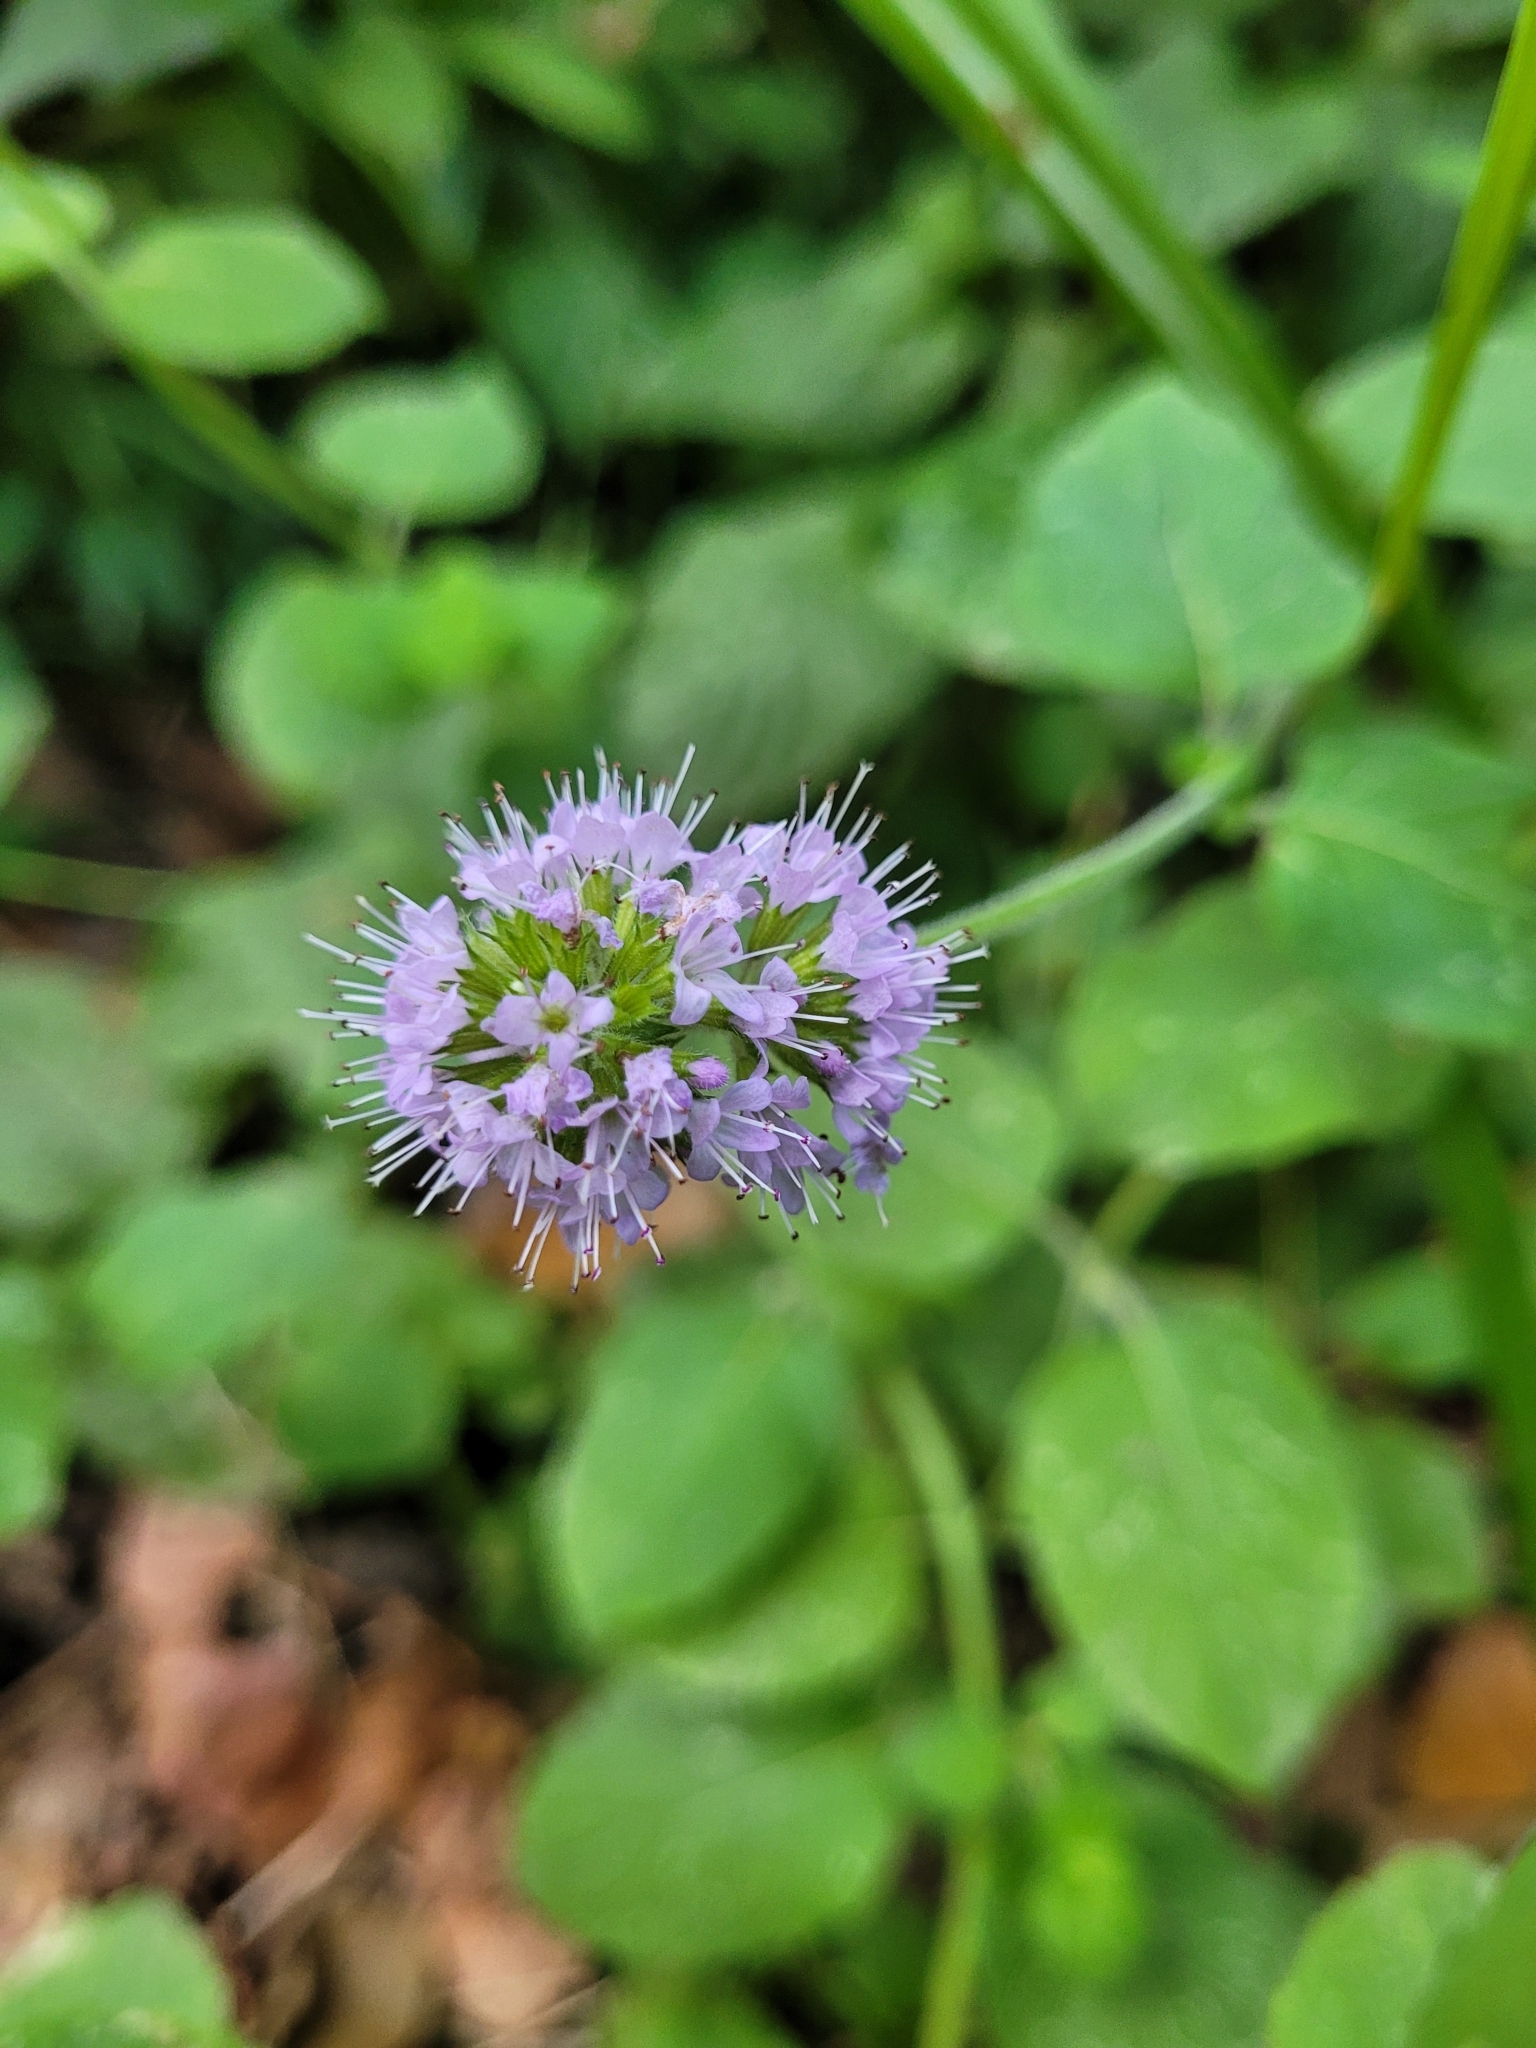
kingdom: Plantae
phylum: Tracheophyta
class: Magnoliopsida
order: Lamiales
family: Lamiaceae
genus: Mentha
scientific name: Mentha aquatica
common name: Water mint
